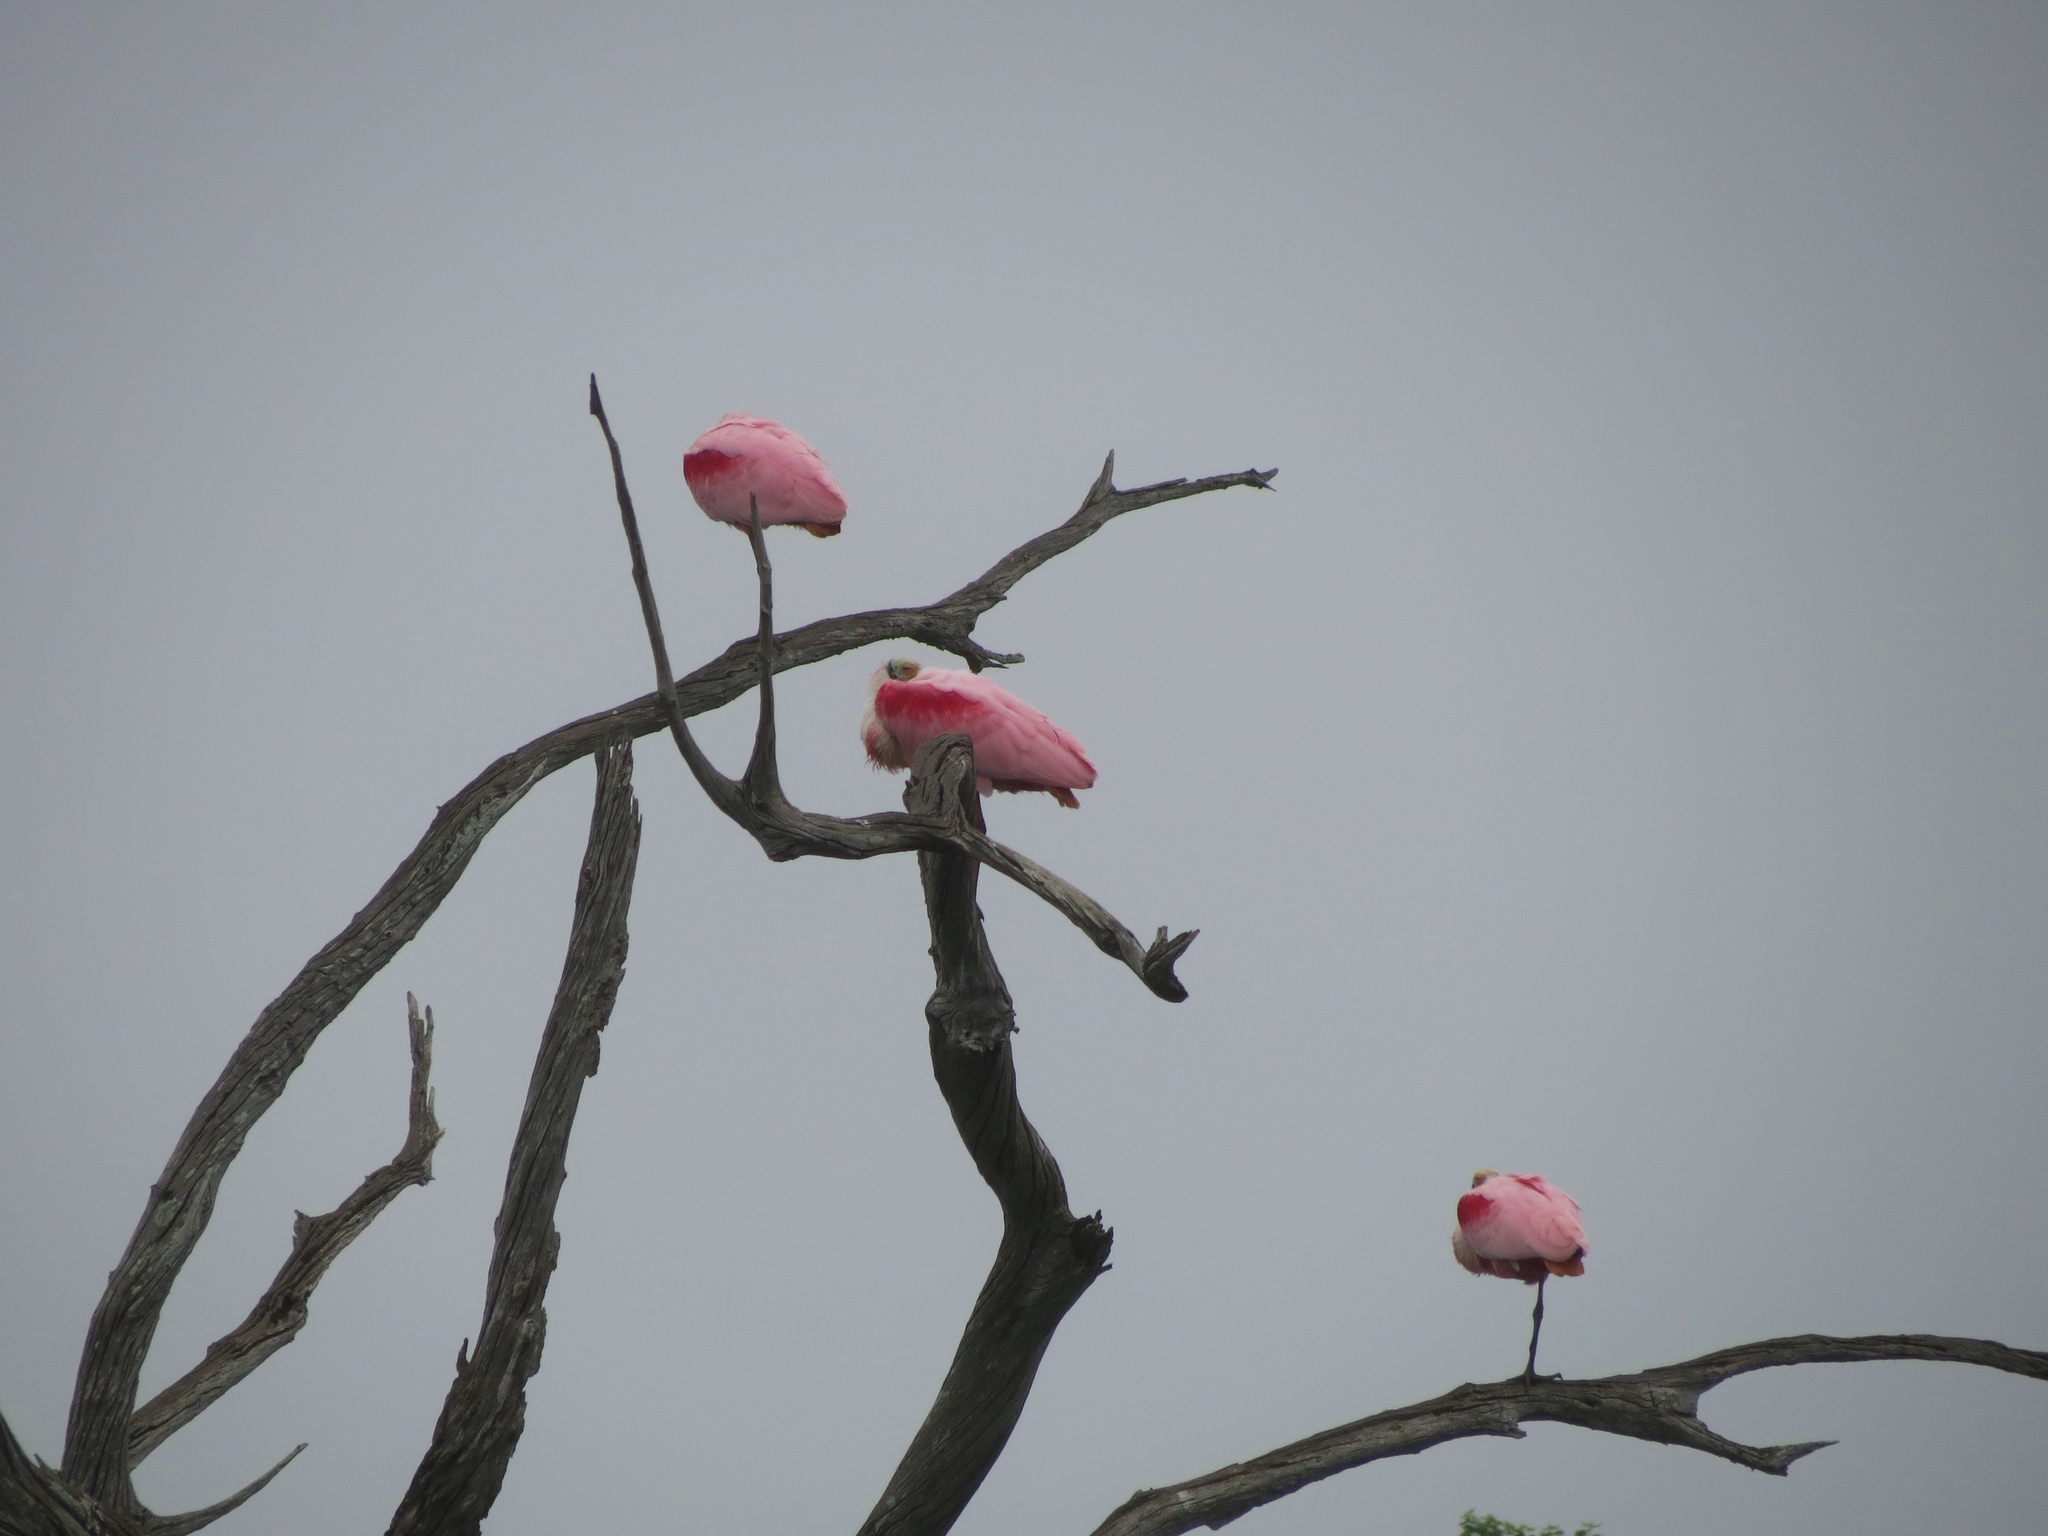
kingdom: Animalia
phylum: Chordata
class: Aves
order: Pelecaniformes
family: Threskiornithidae
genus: Platalea
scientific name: Platalea ajaja
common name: Roseate spoonbill
